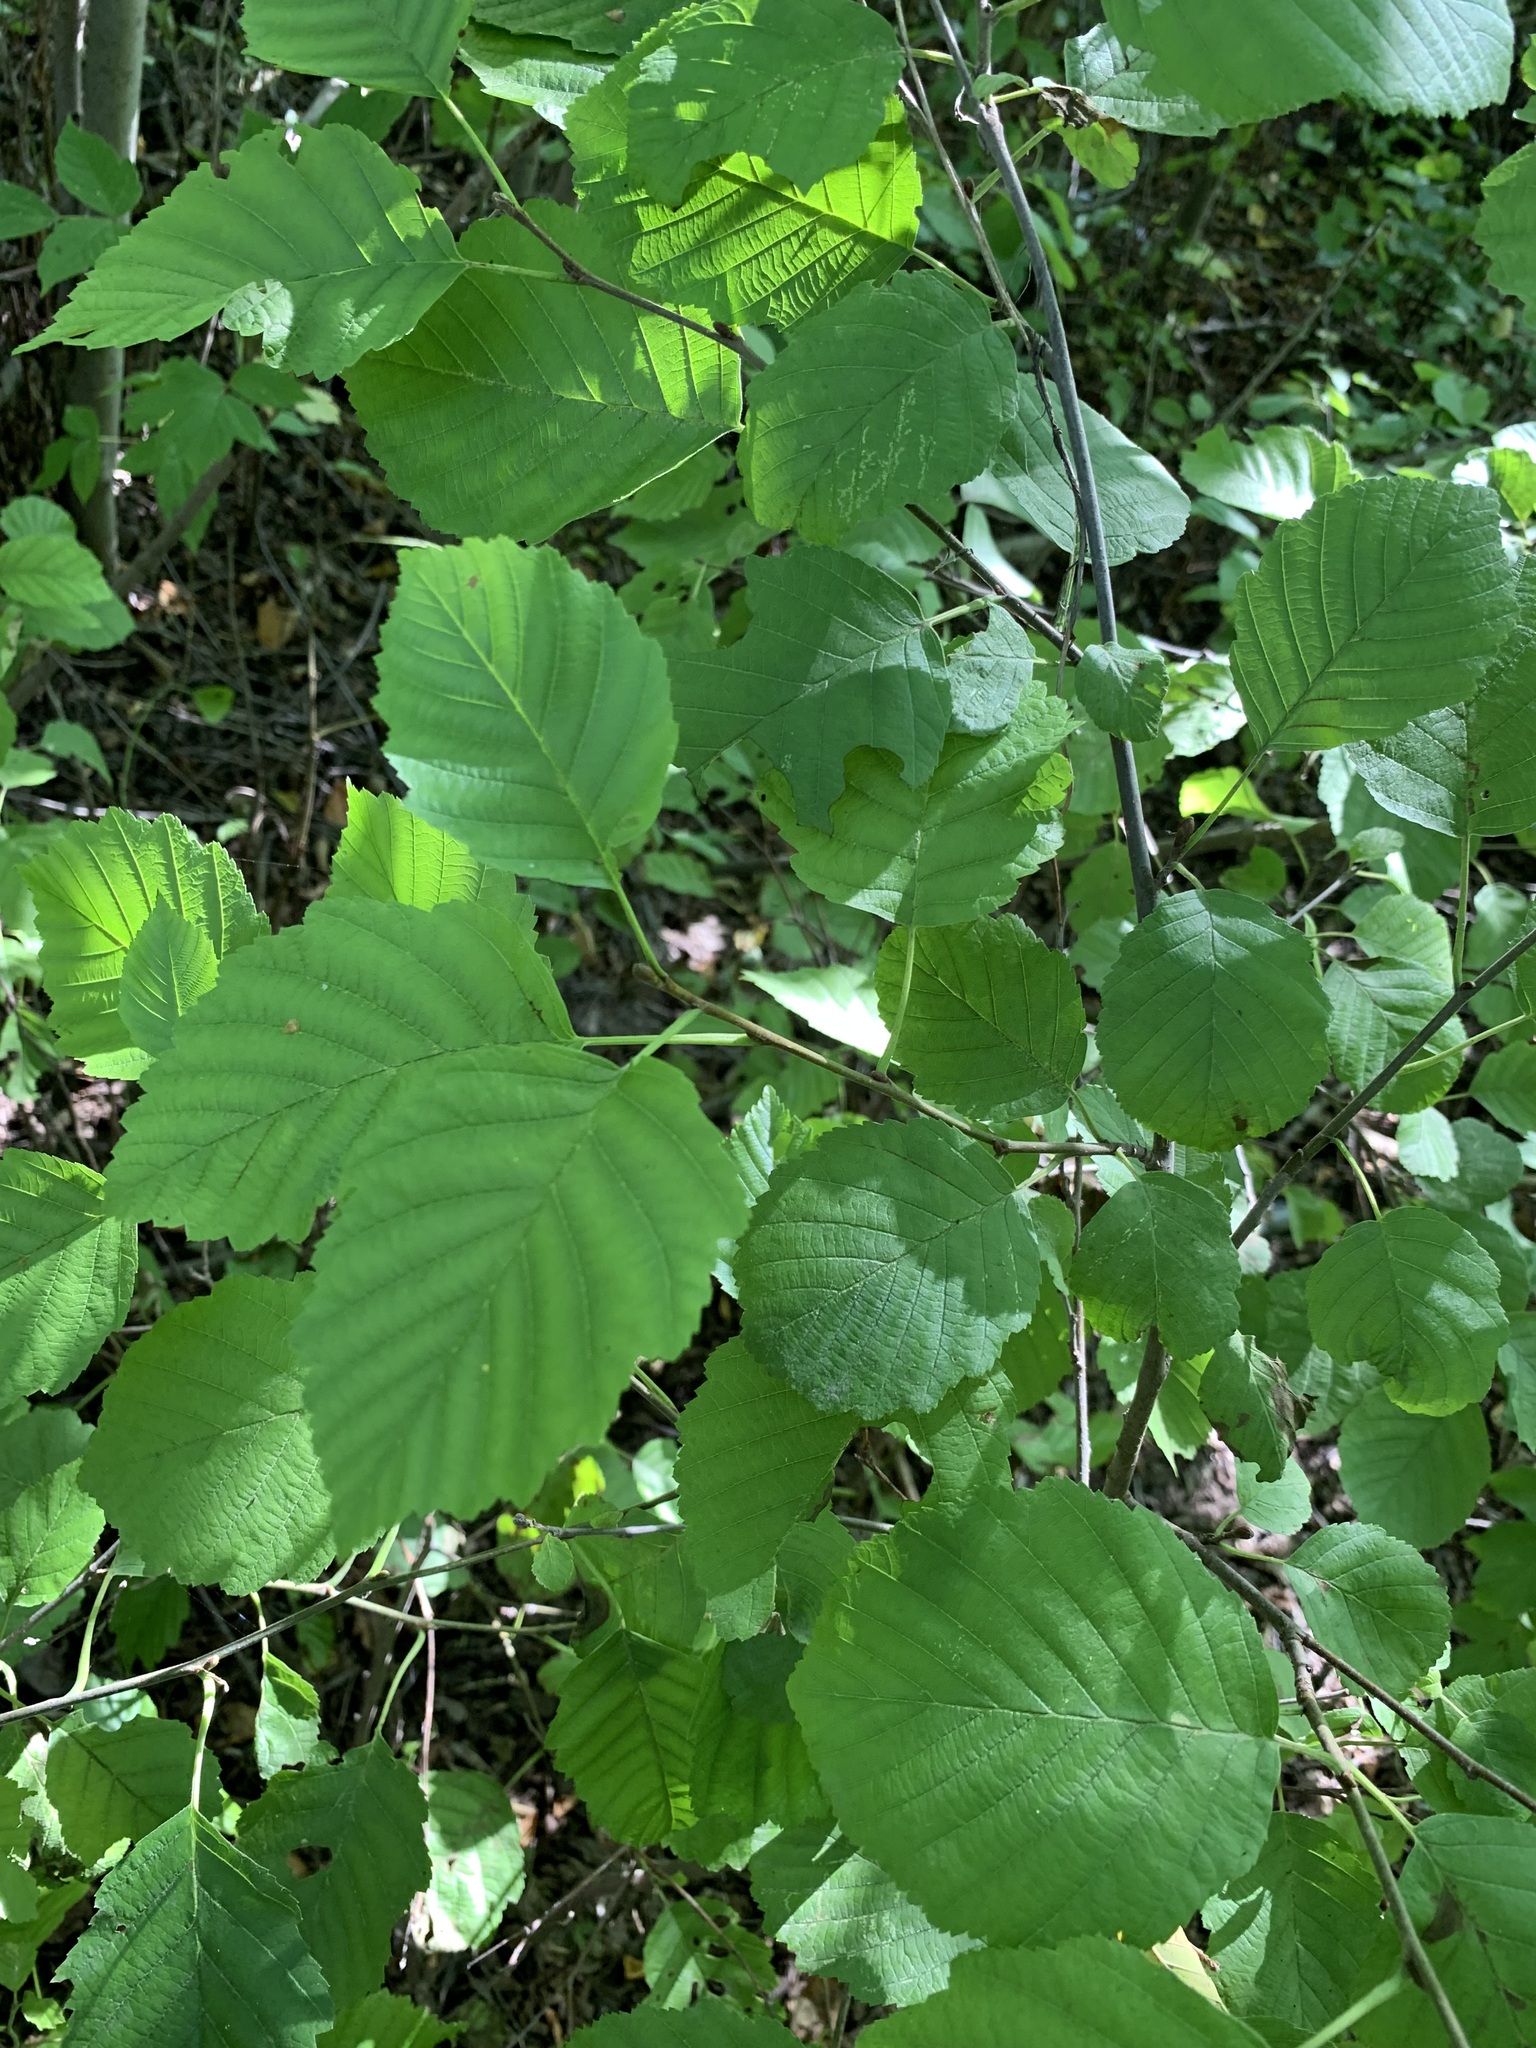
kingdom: Plantae
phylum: Tracheophyta
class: Magnoliopsida
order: Fagales
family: Betulaceae
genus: Alnus
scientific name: Alnus incana
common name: Grey alder
